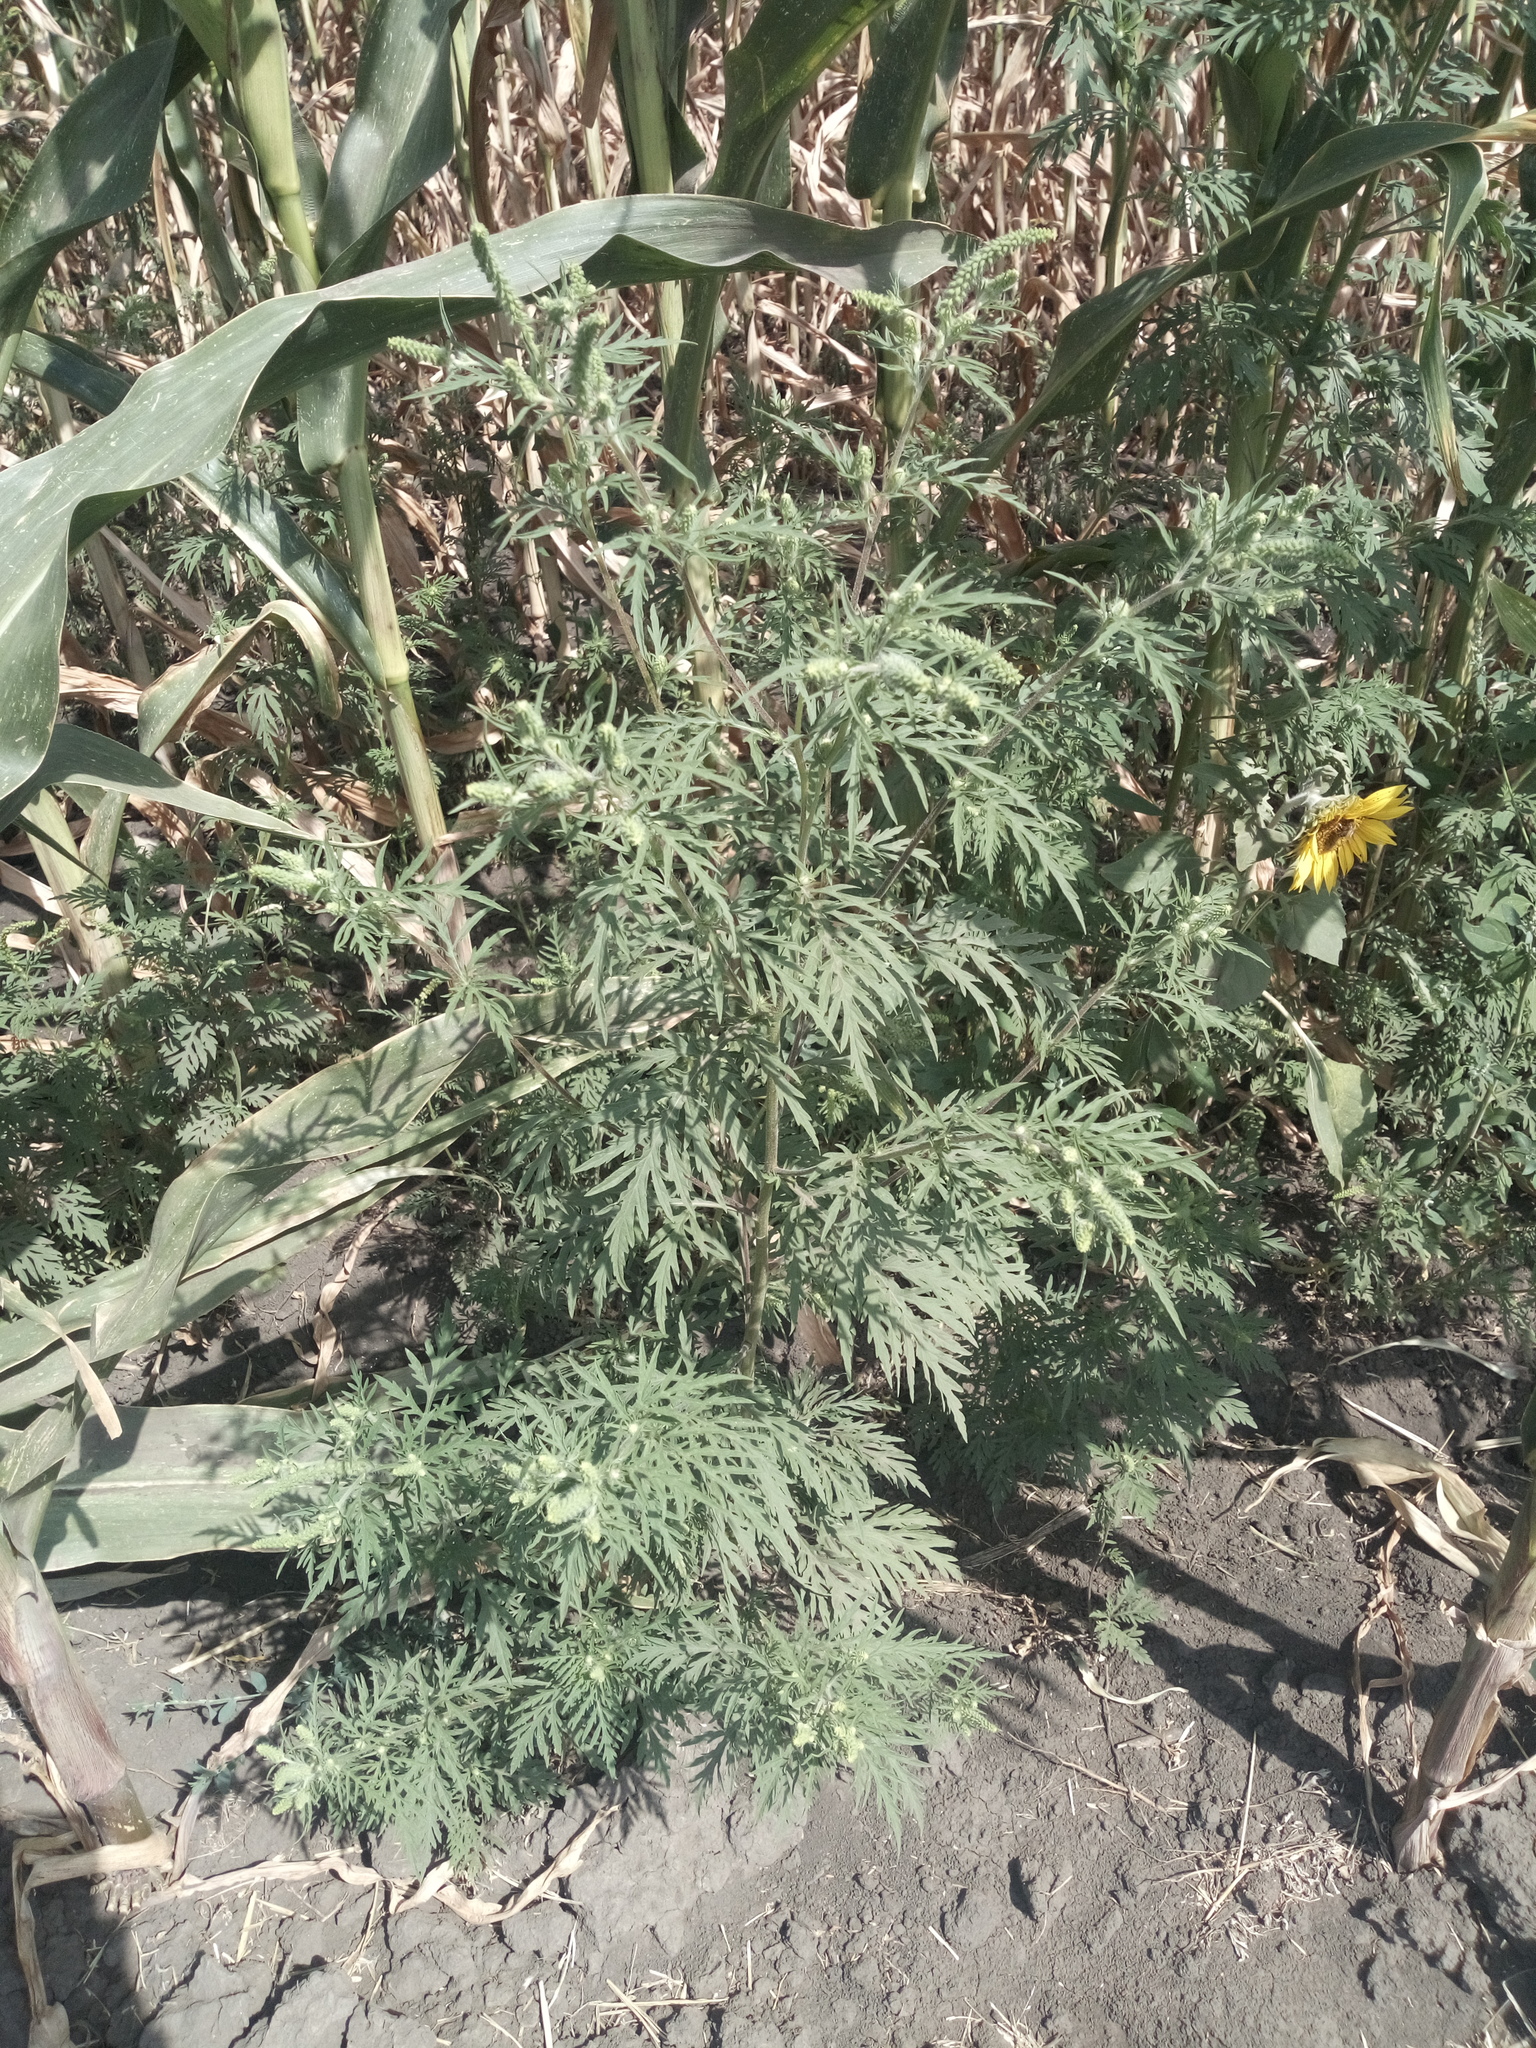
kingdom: Plantae
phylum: Tracheophyta
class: Magnoliopsida
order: Asterales
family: Asteraceae
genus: Ambrosia
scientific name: Ambrosia artemisiifolia
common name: Annual ragweed
